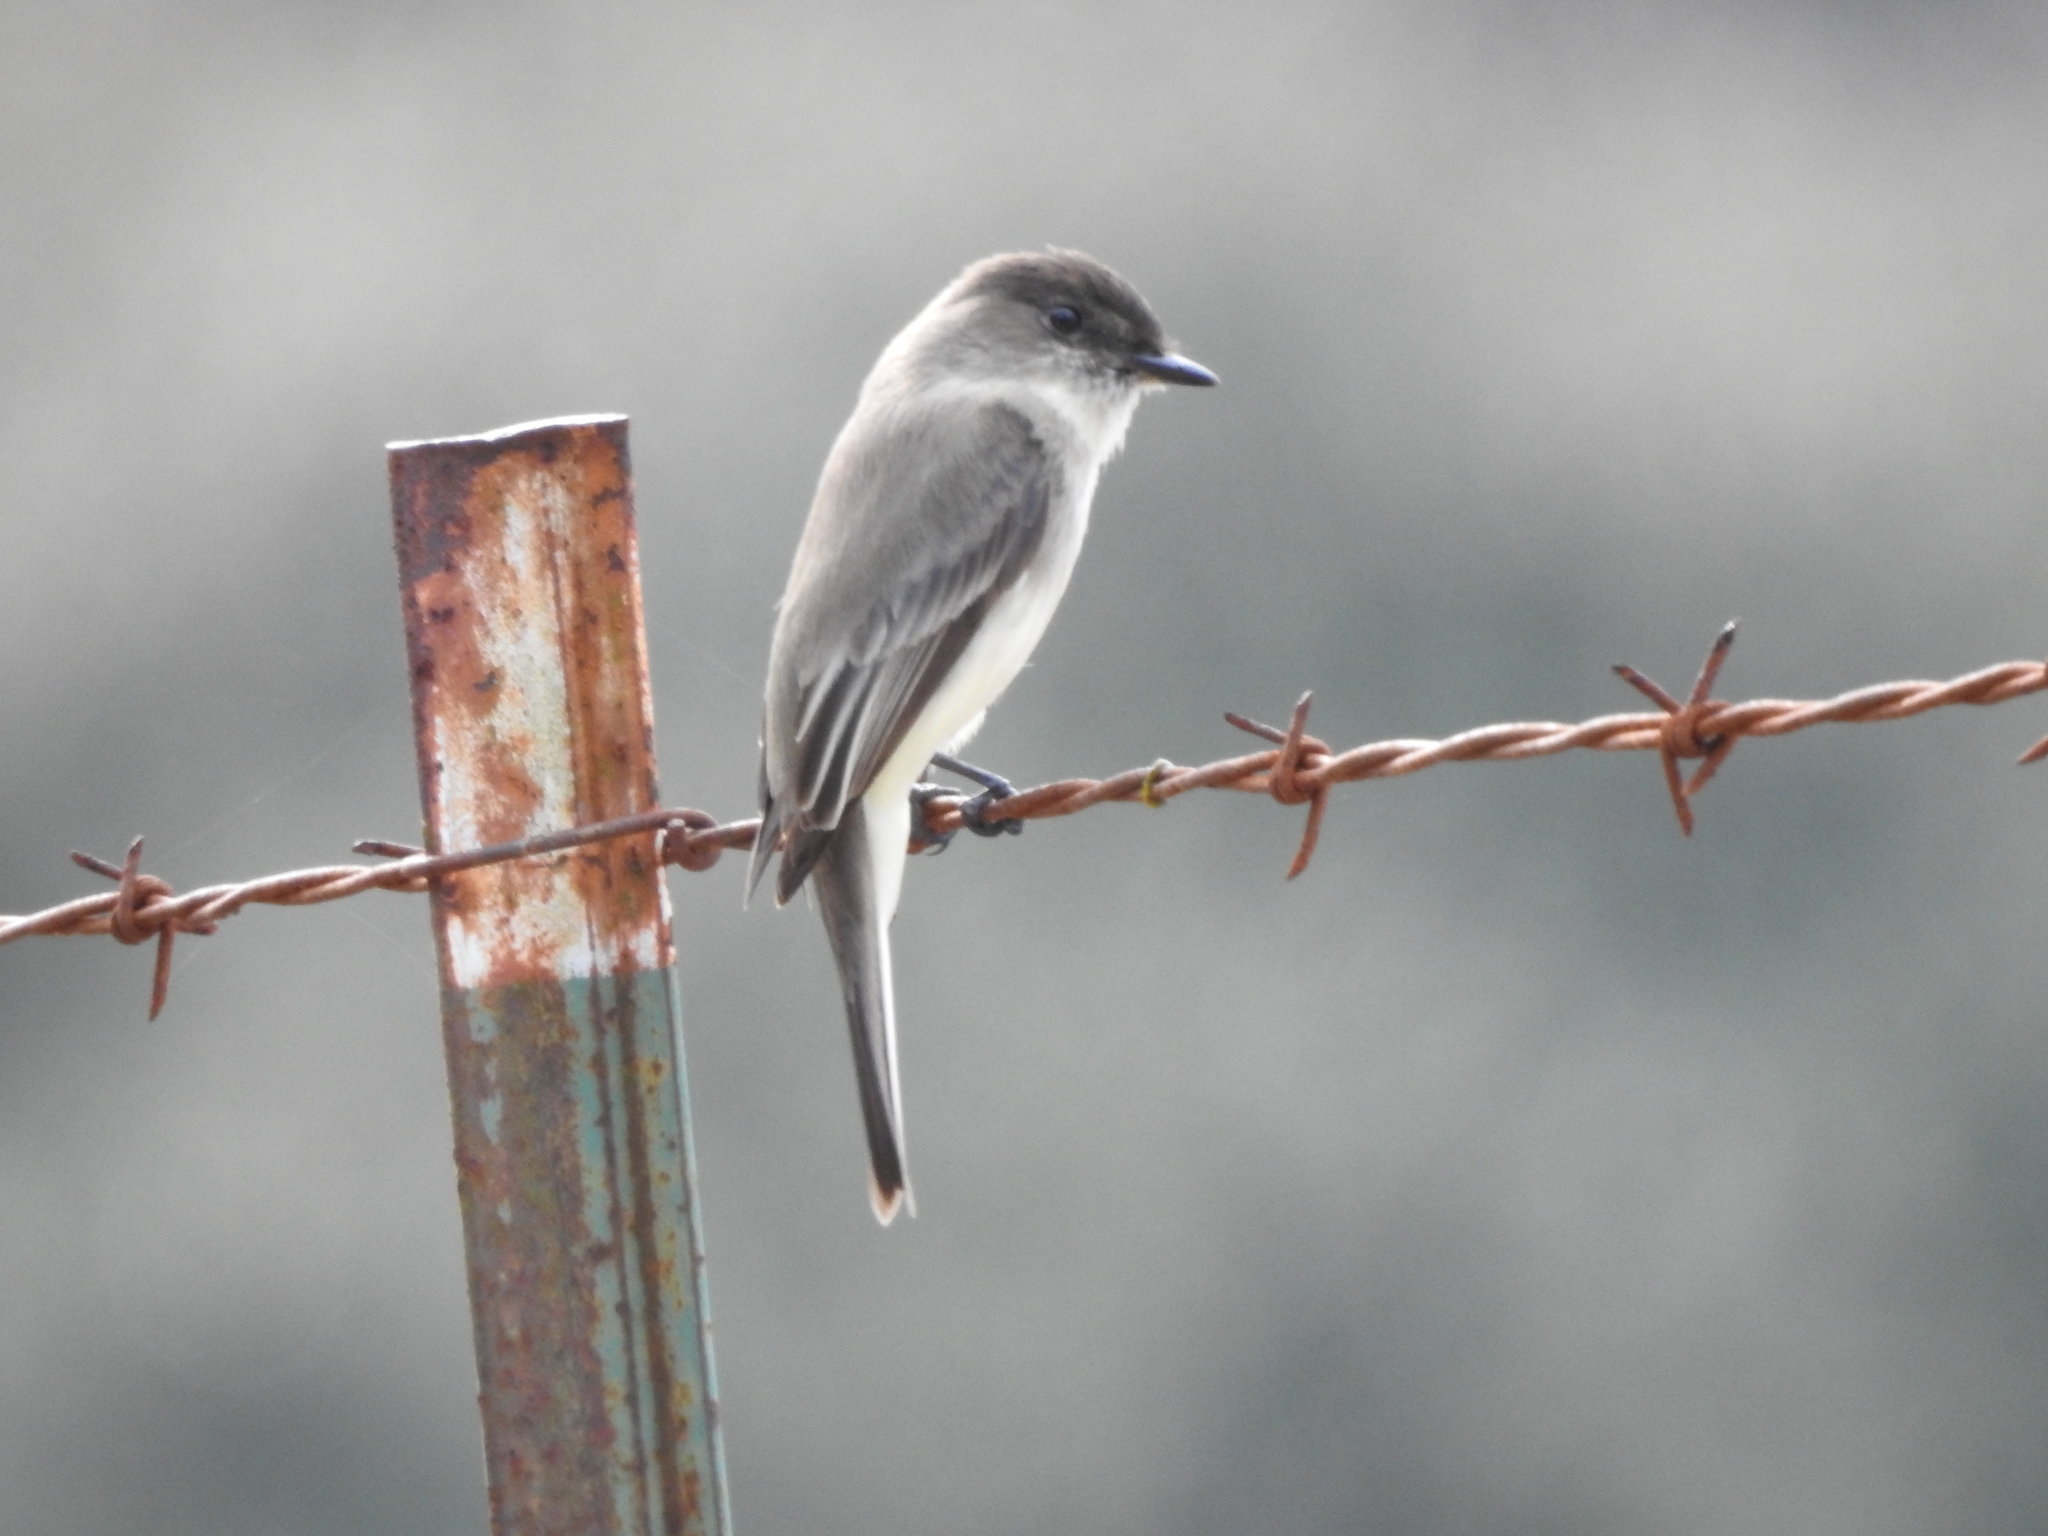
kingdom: Animalia
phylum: Chordata
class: Aves
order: Passeriformes
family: Tyrannidae
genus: Sayornis
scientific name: Sayornis phoebe
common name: Eastern phoebe
